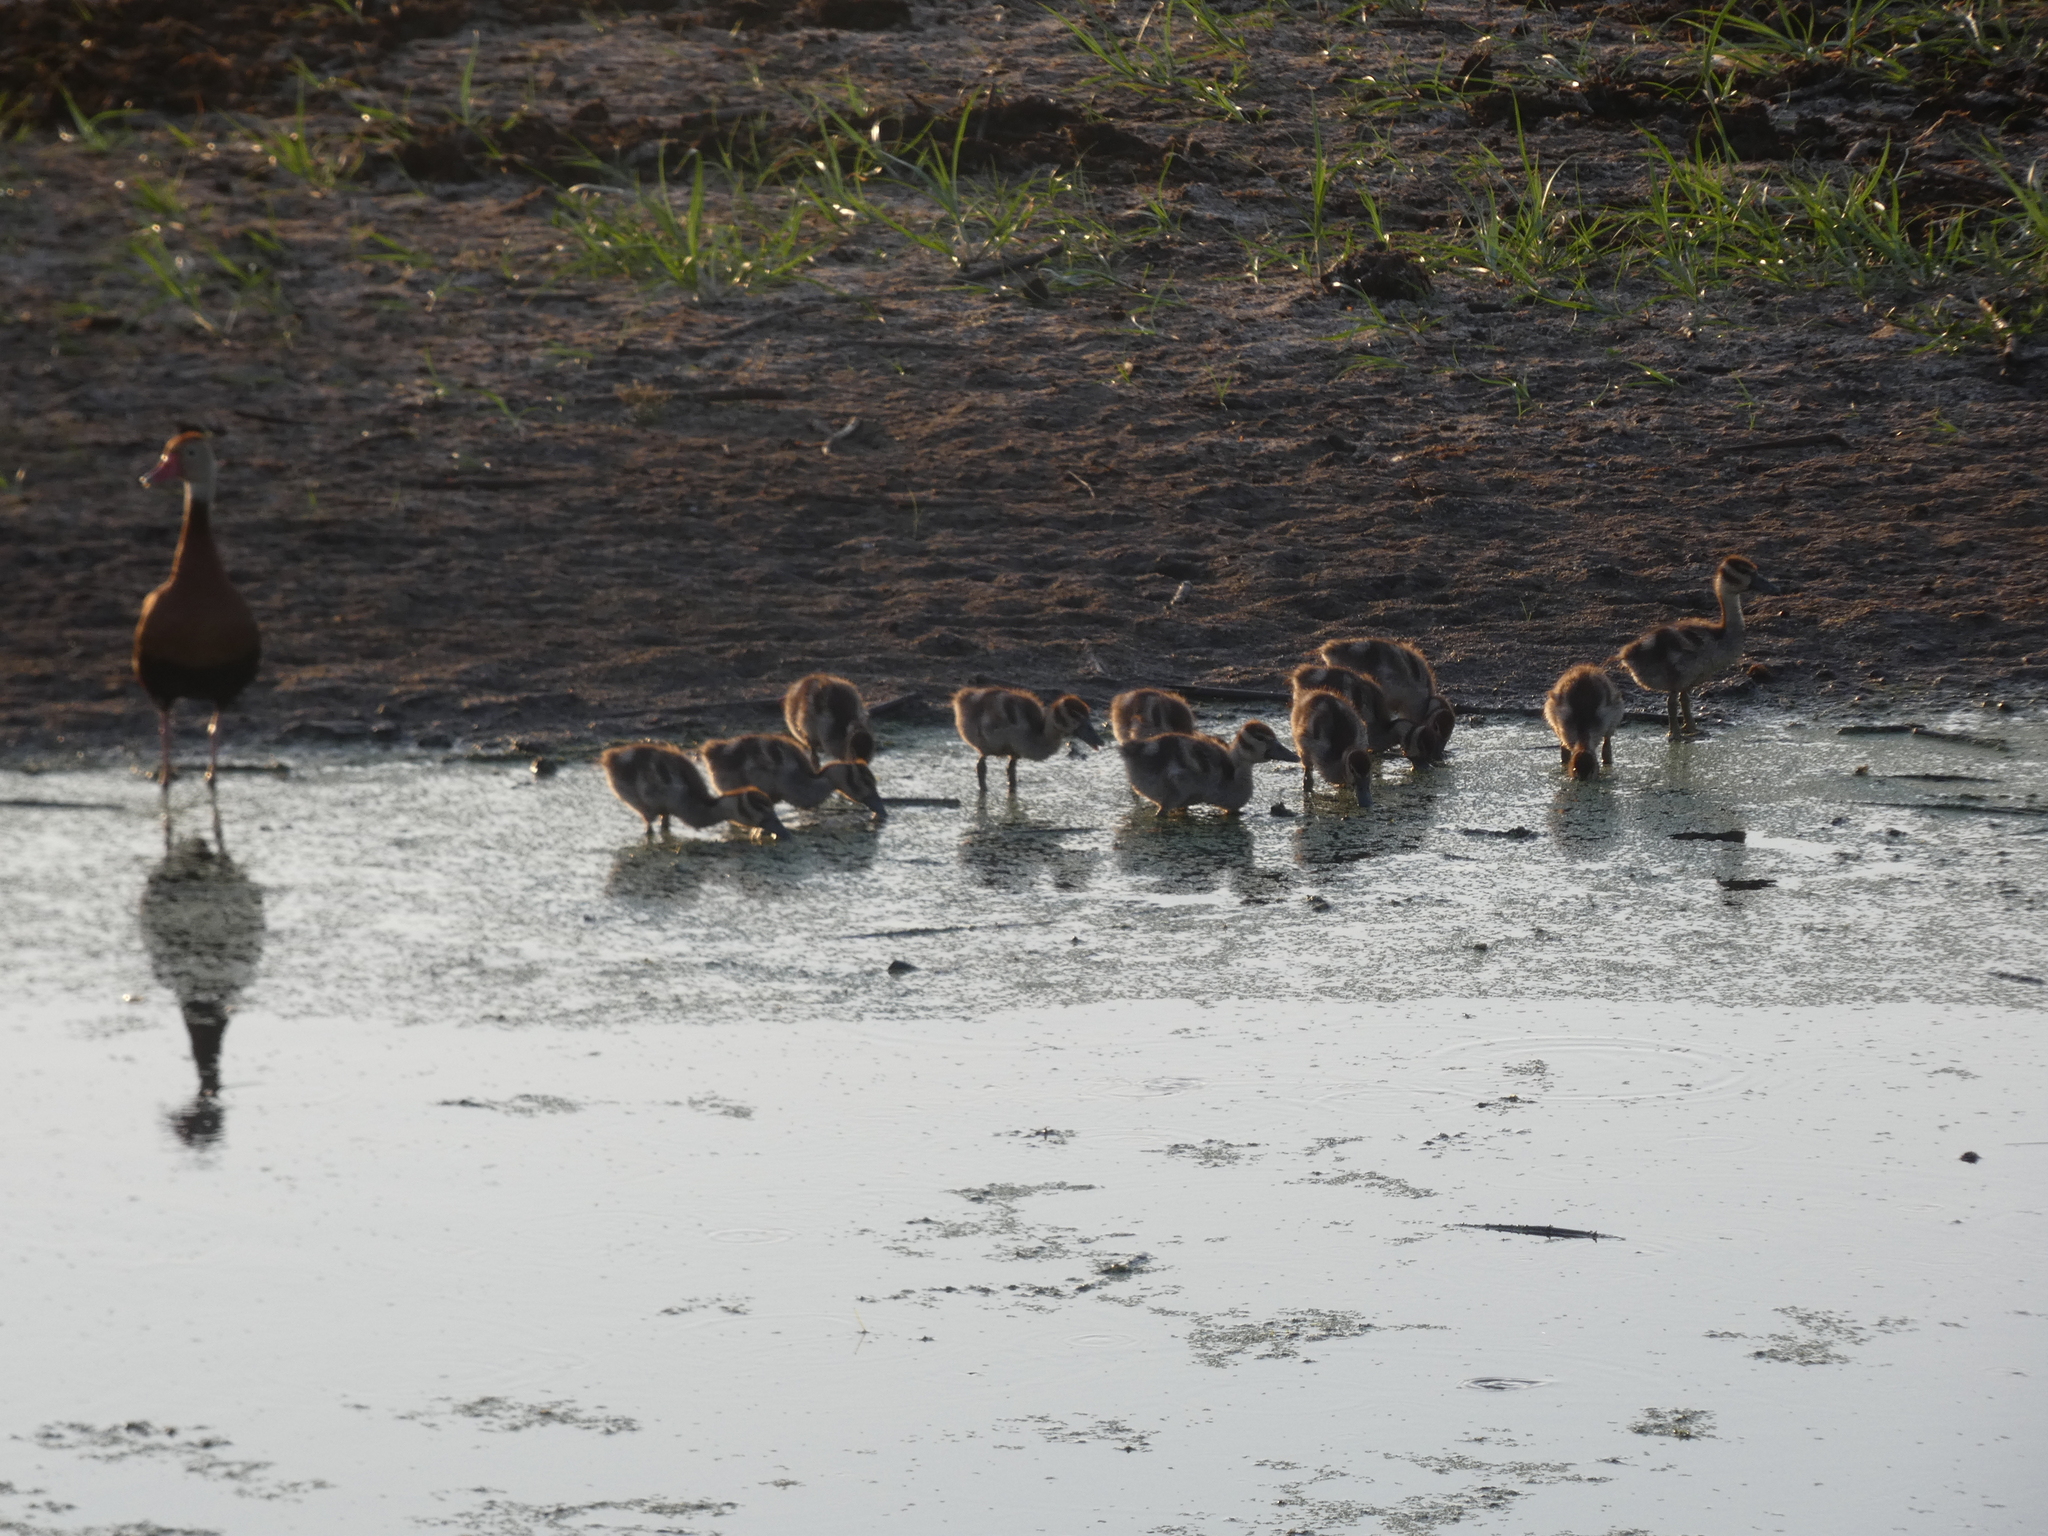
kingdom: Animalia
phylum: Chordata
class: Aves
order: Anseriformes
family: Anatidae
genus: Dendrocygna
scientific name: Dendrocygna autumnalis
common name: Black-bellied whistling duck
